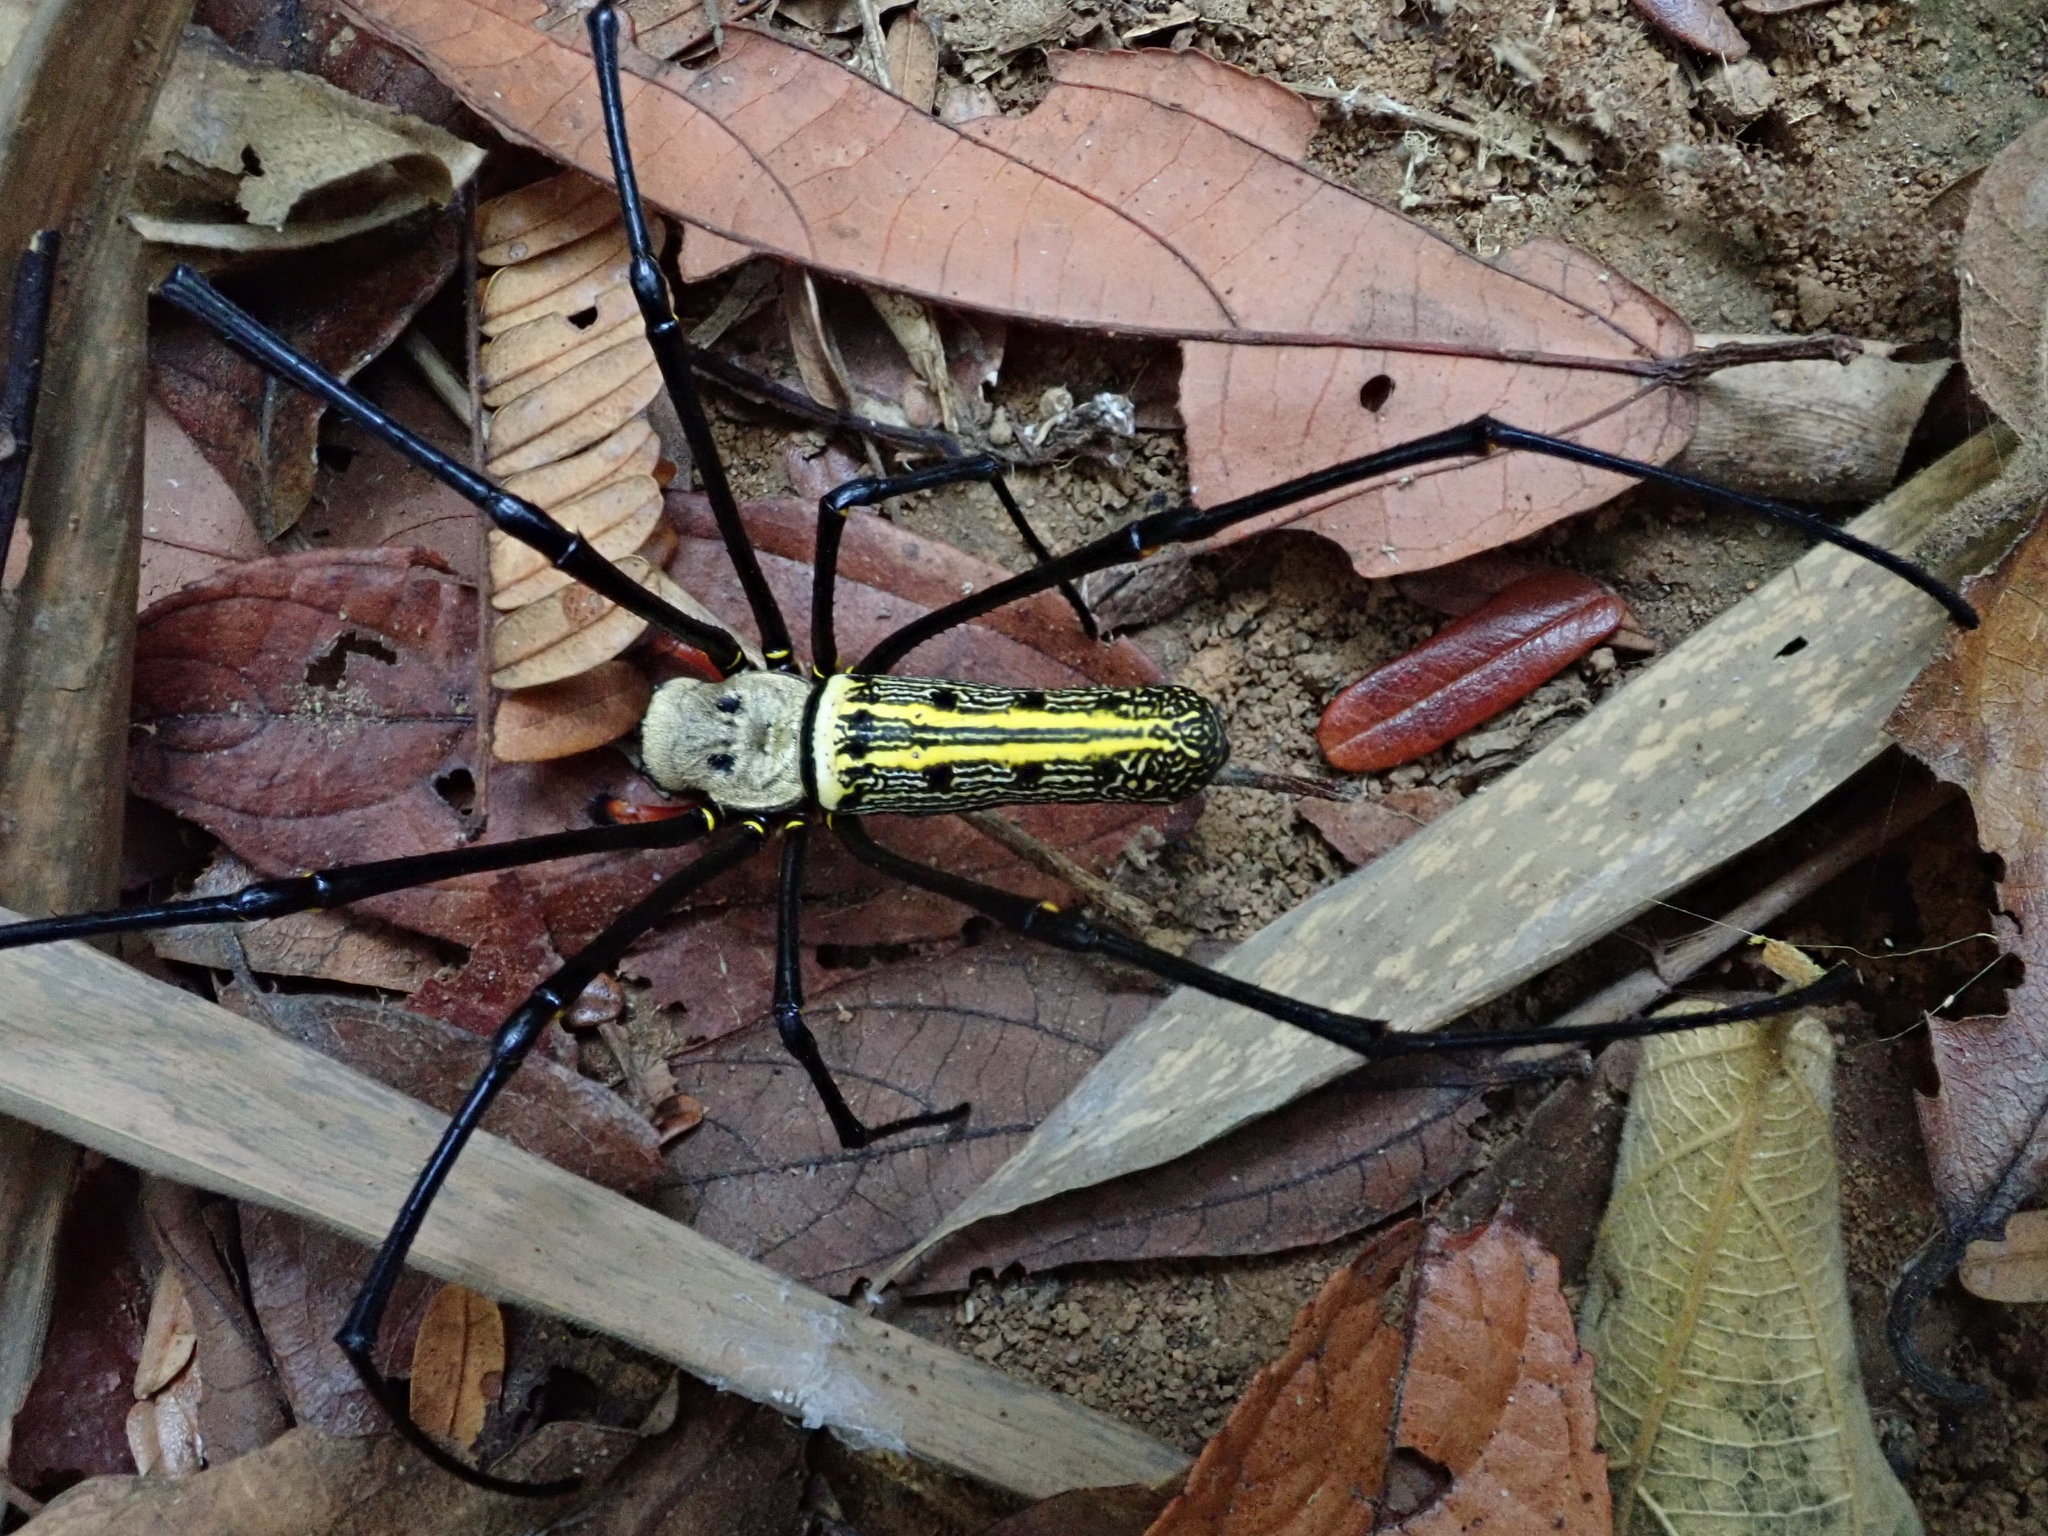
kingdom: Animalia
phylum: Arthropoda
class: Arachnida
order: Araneae
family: Araneidae
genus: Nephila
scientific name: Nephila pilipes
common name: Giant golden orb weaver
